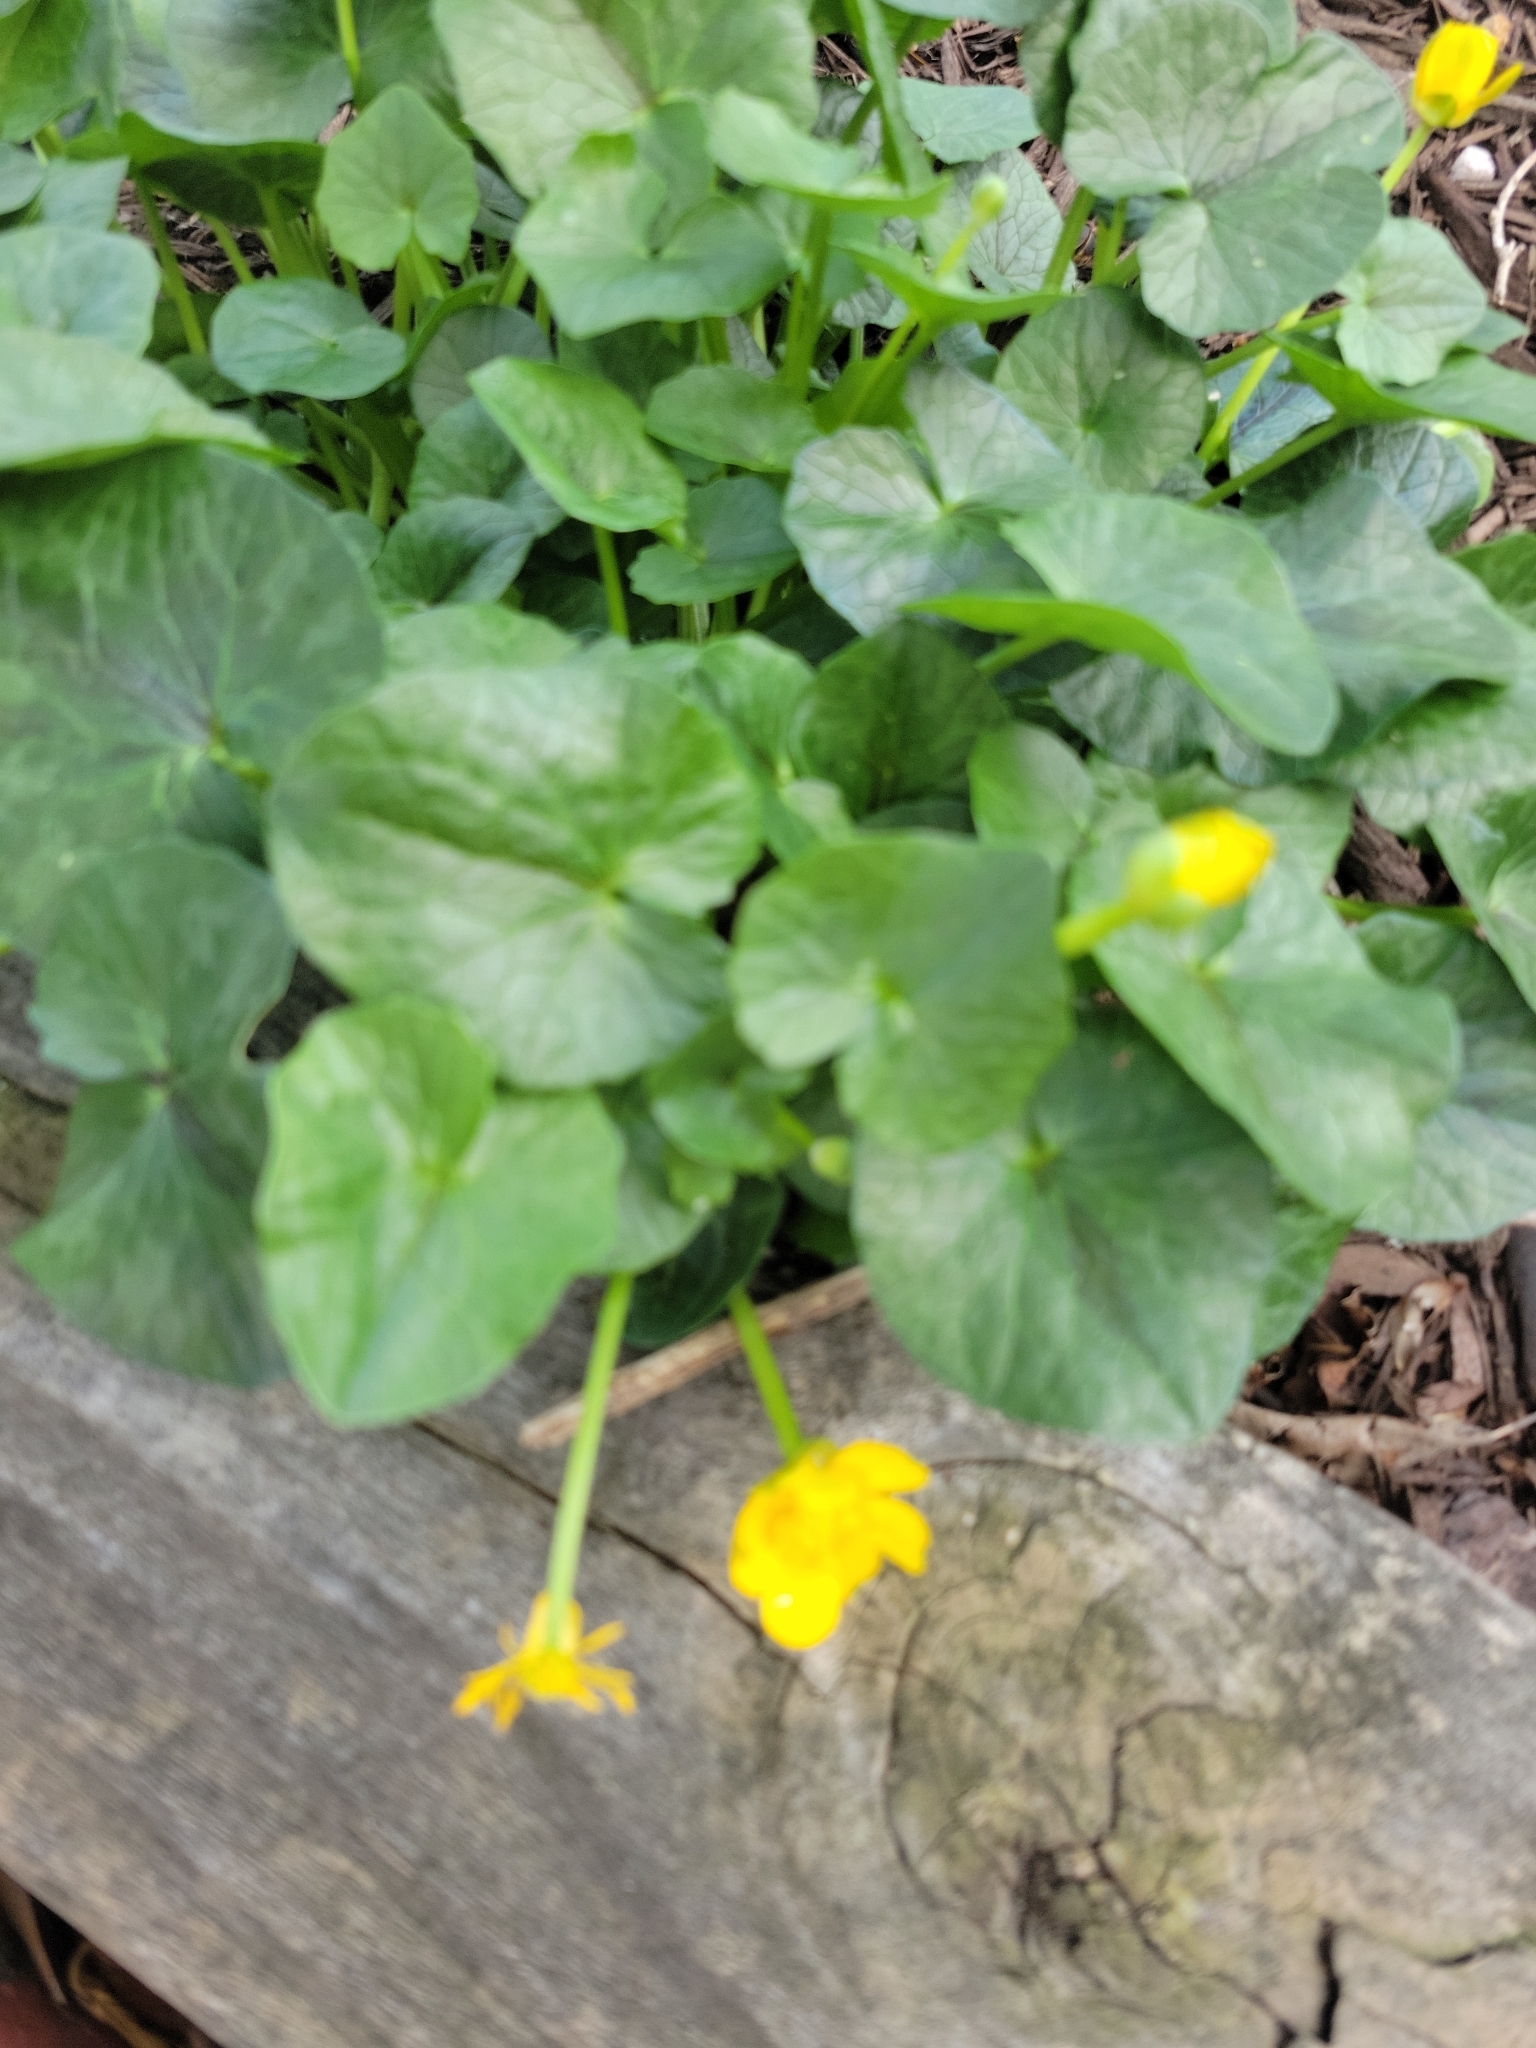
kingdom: Plantae
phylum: Tracheophyta
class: Magnoliopsida
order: Ranunculales
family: Ranunculaceae
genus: Ficaria
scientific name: Ficaria verna
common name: Lesser celandine
